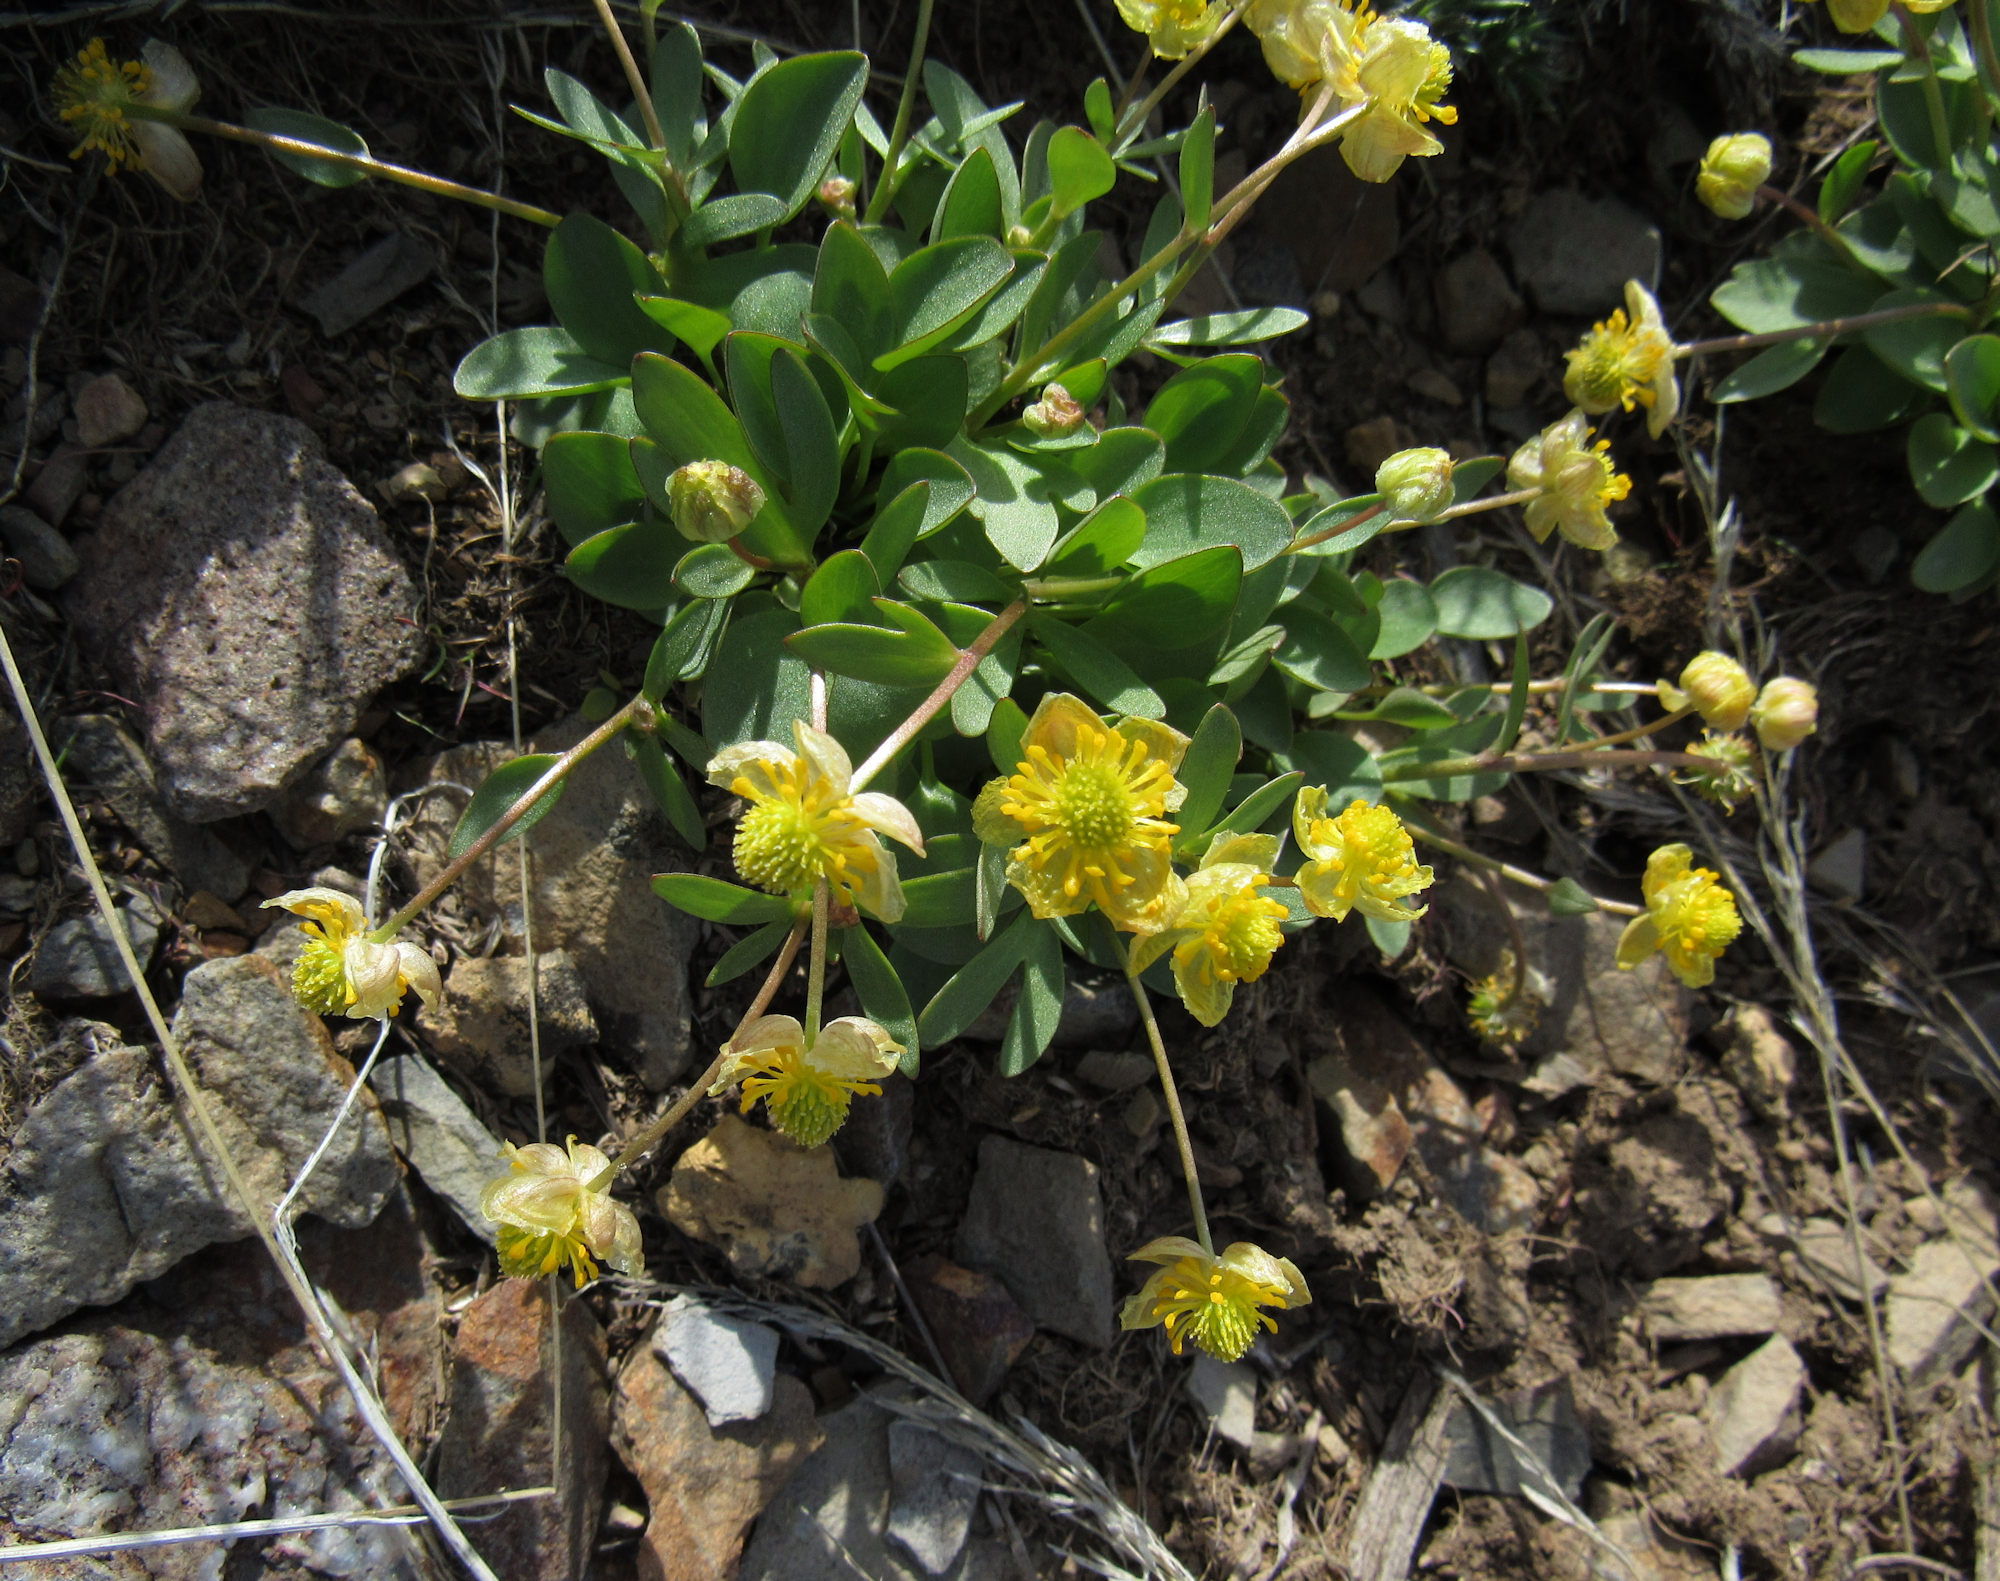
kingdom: Plantae
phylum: Tracheophyta
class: Magnoliopsida
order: Ranunculales
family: Ranunculaceae
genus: Ranunculus
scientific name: Ranunculus glaberrimus
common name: Sagebrush buttercup
